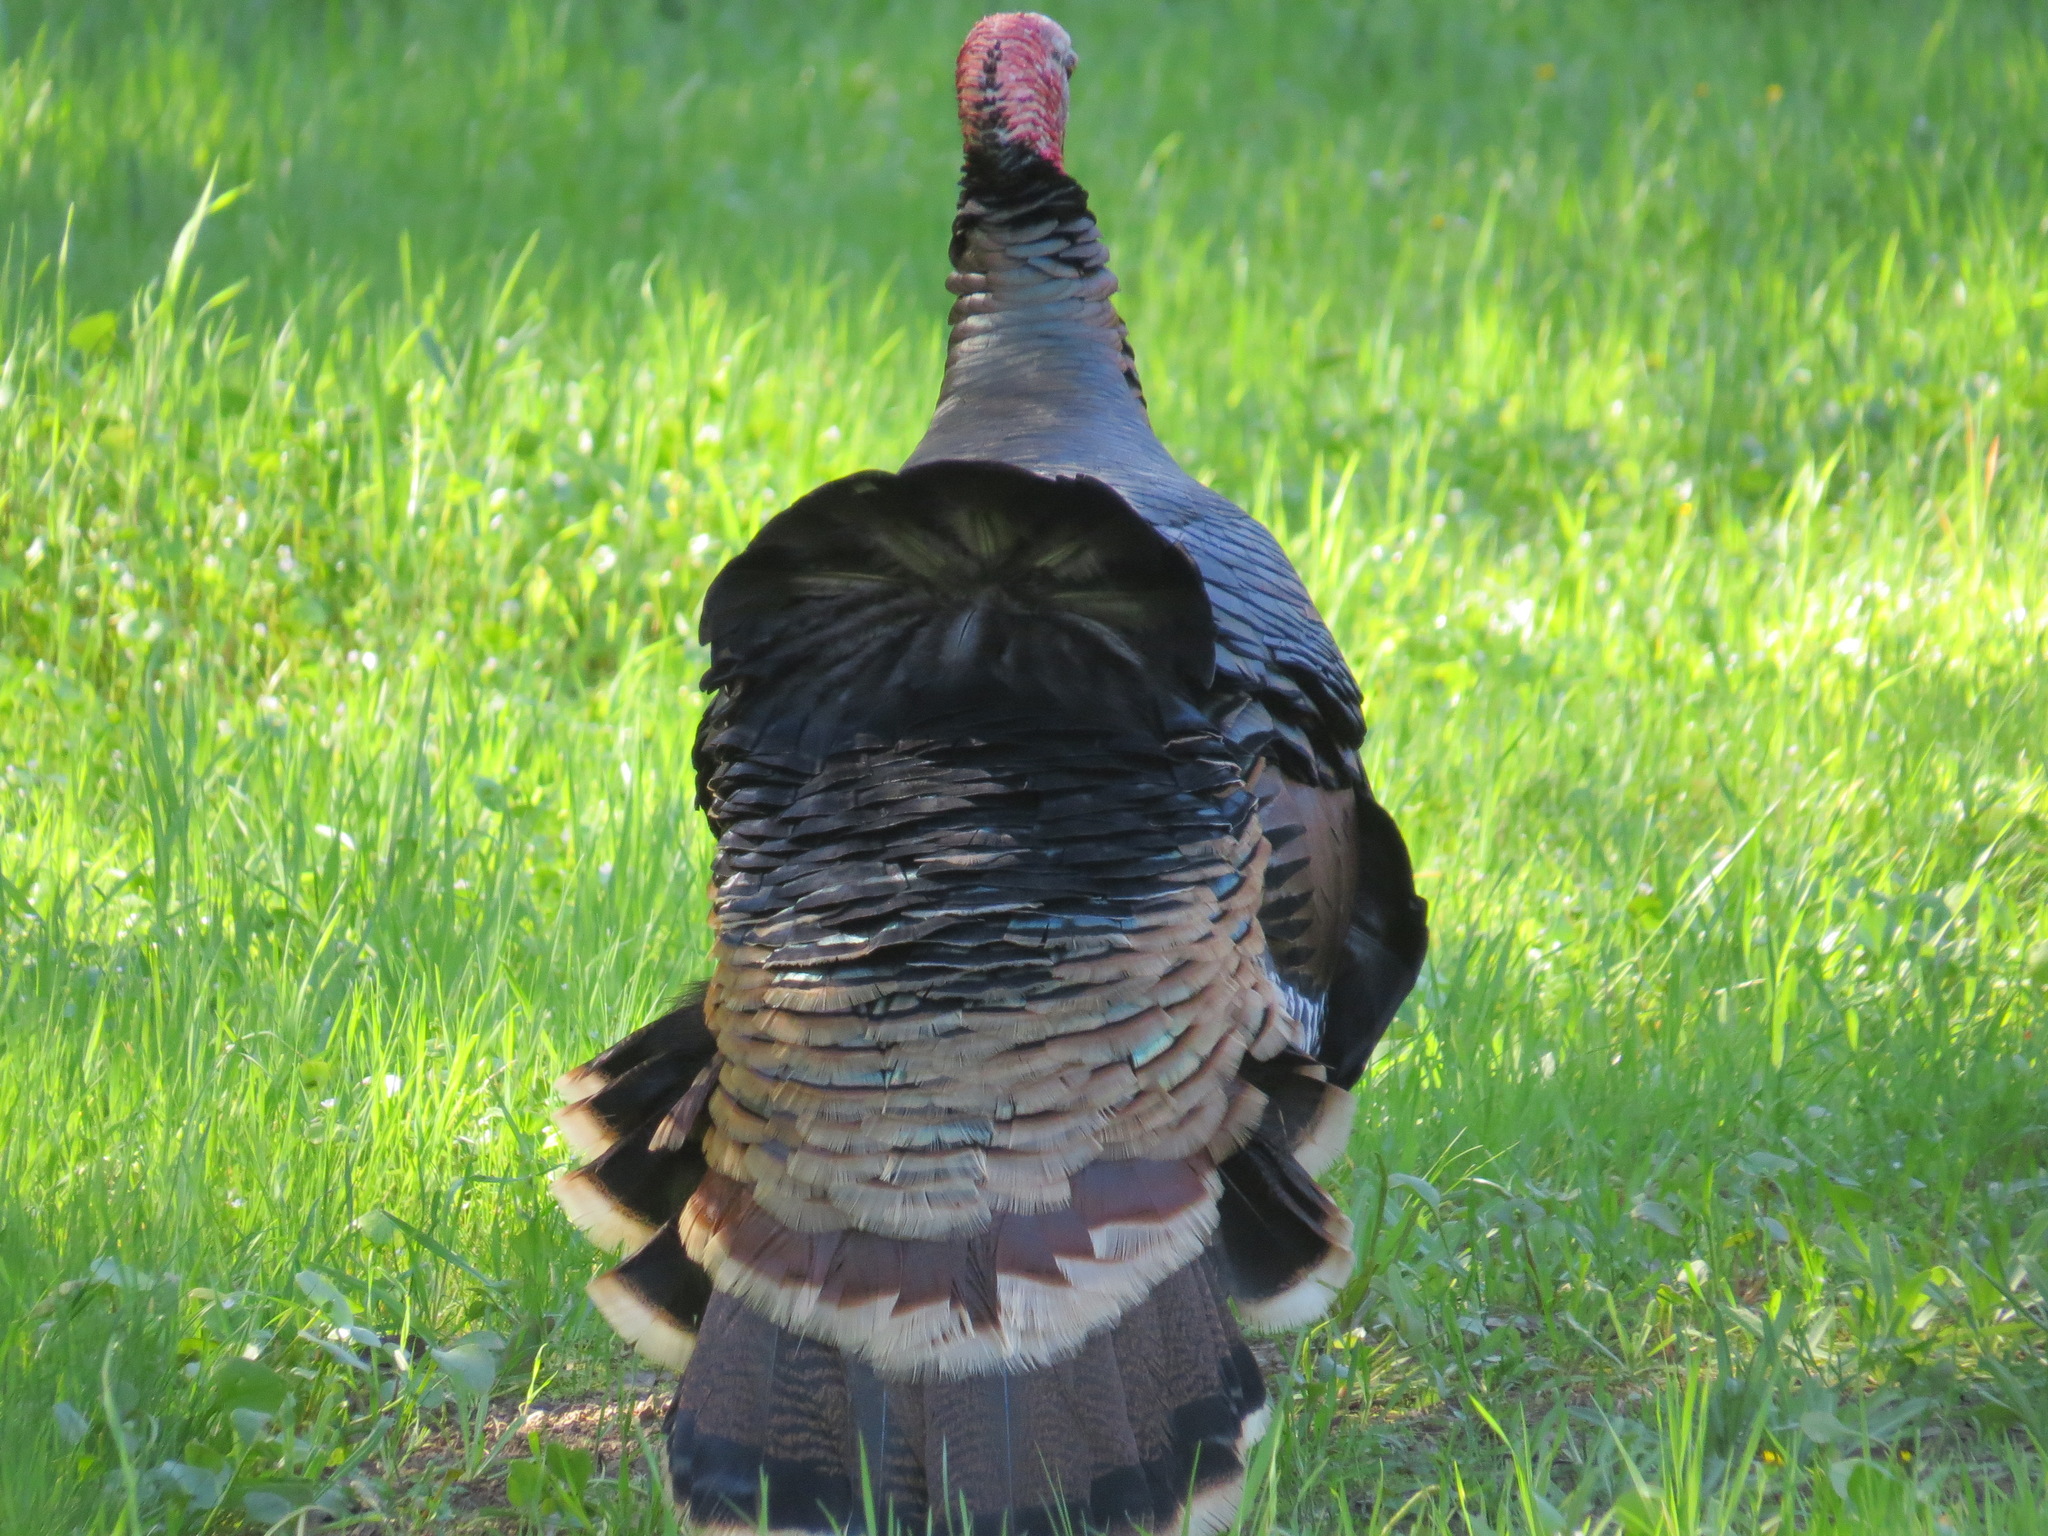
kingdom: Animalia
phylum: Chordata
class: Aves
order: Galliformes
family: Phasianidae
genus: Meleagris
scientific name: Meleagris gallopavo
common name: Wild turkey
